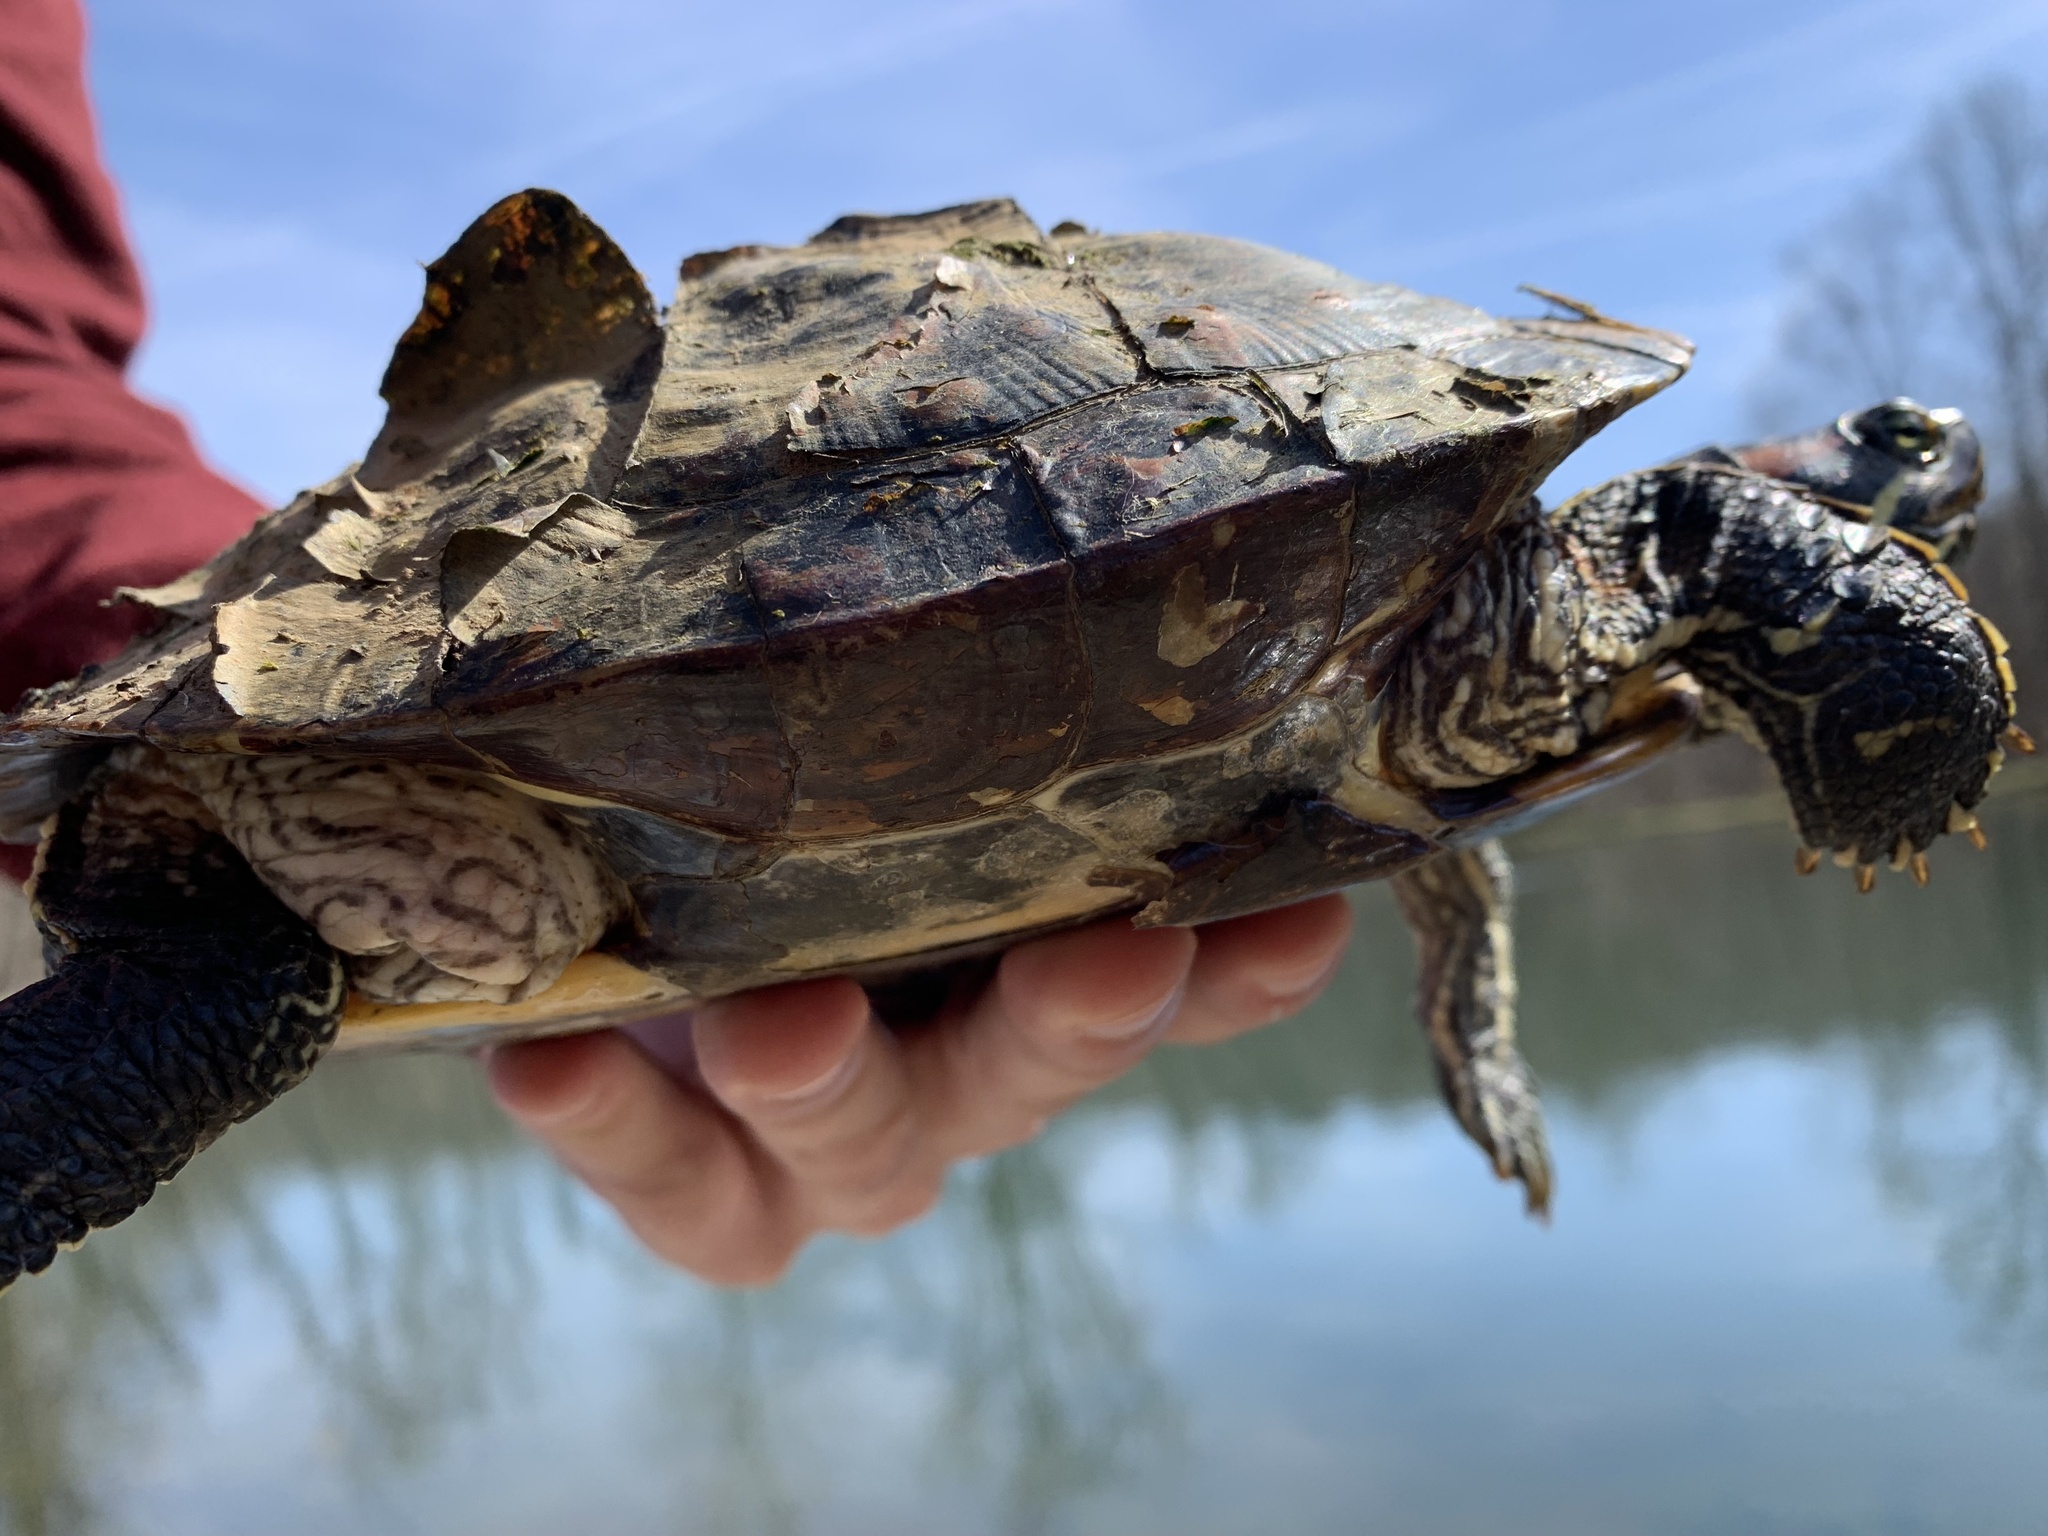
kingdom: Animalia
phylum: Chordata
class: Testudines
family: Emydidae
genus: Trachemys
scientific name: Trachemys scripta
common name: Slider
